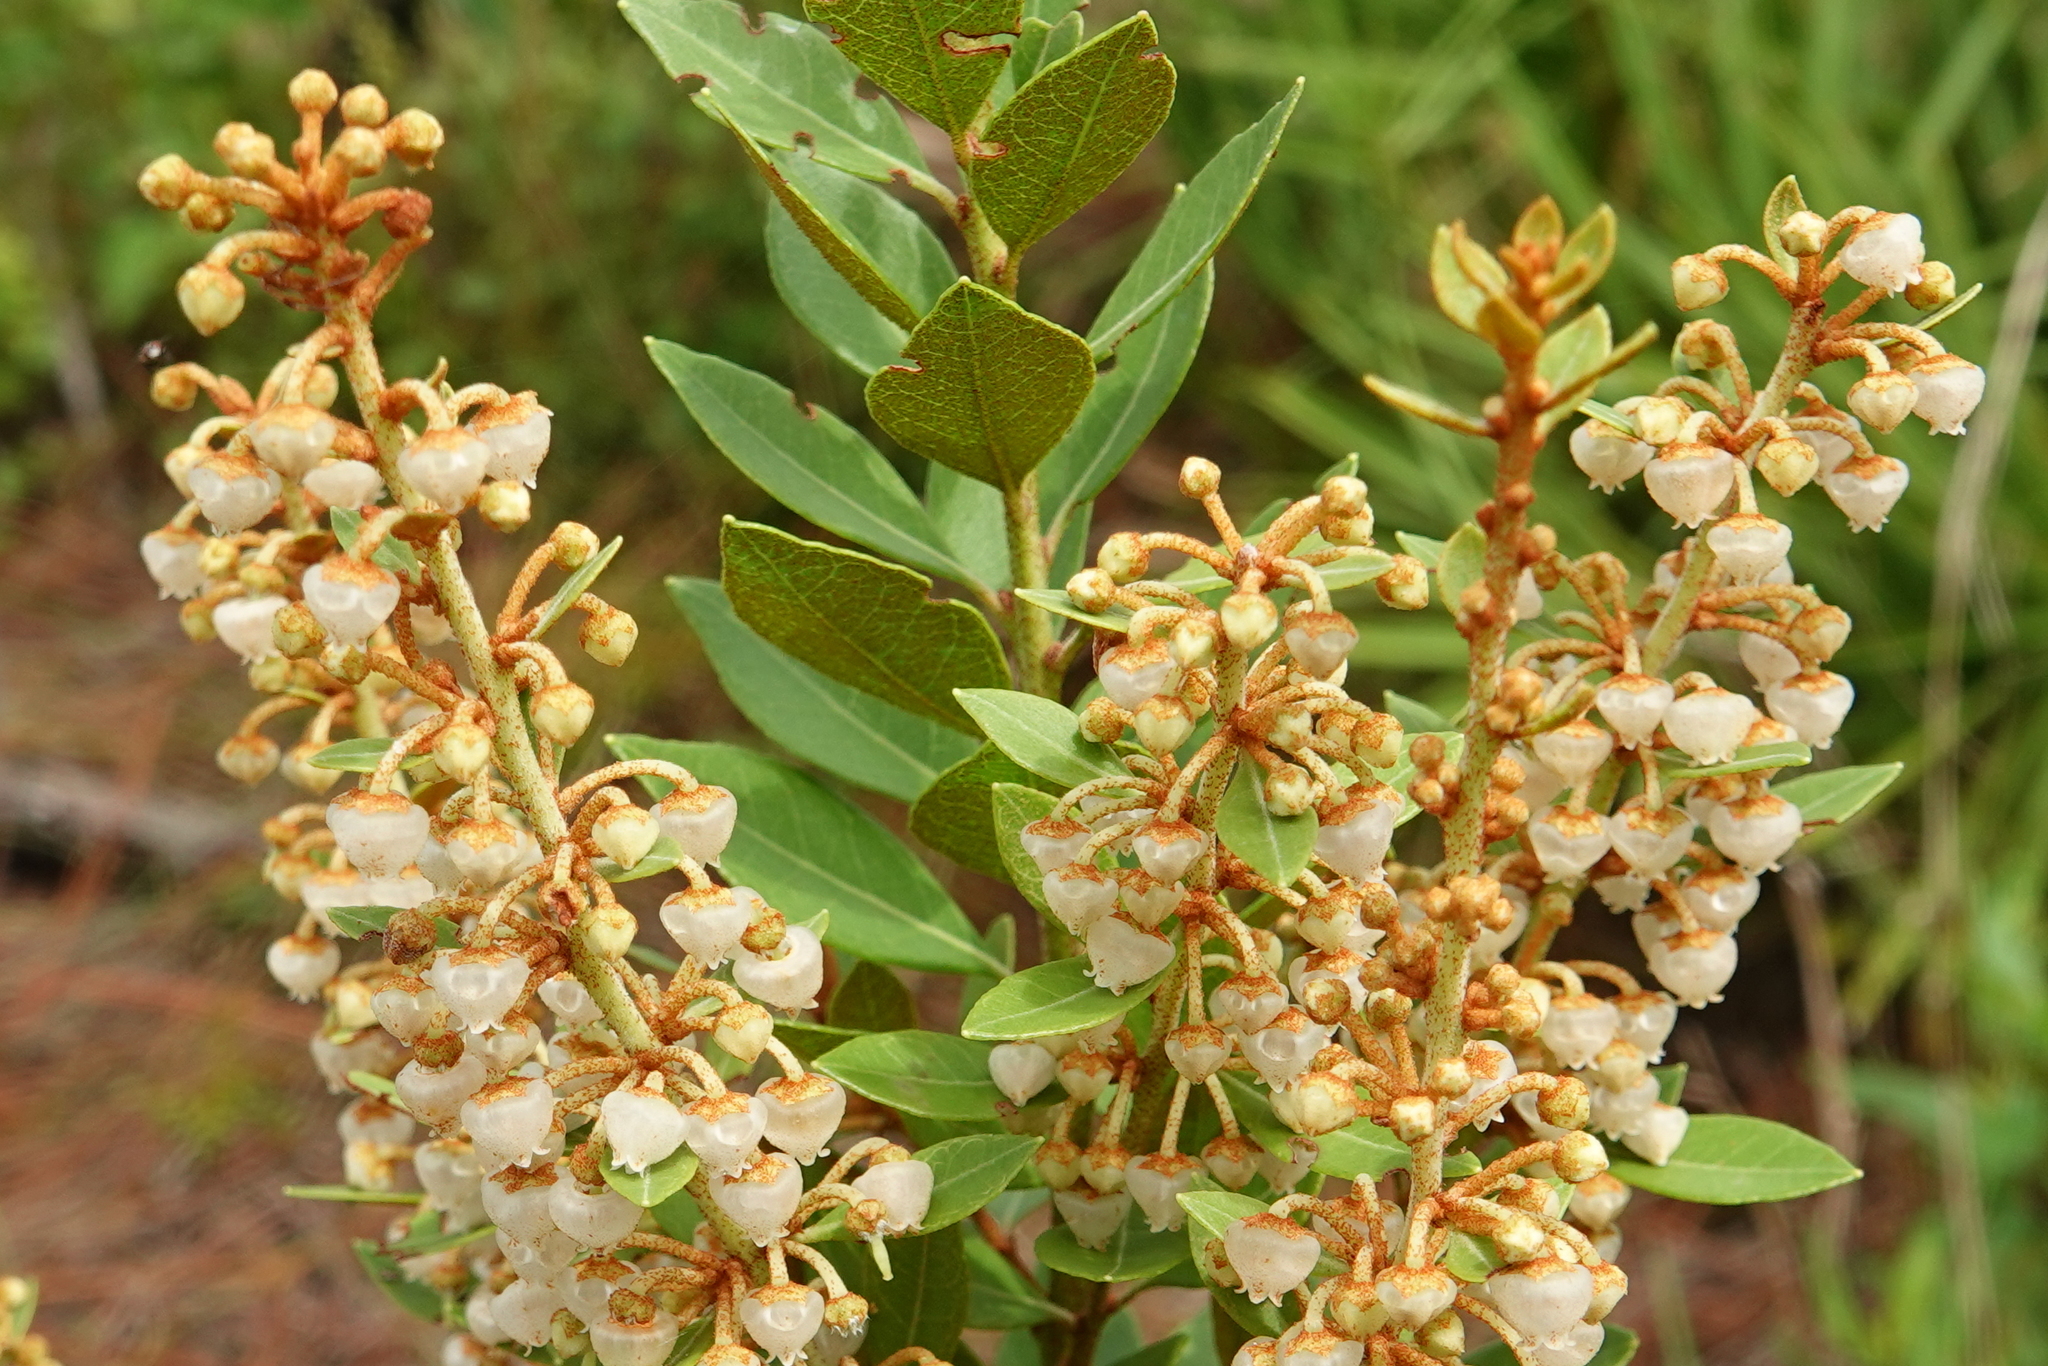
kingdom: Plantae
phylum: Tracheophyta
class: Magnoliopsida
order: Ericales
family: Ericaceae
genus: Lyonia
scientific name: Lyonia fruticosa
